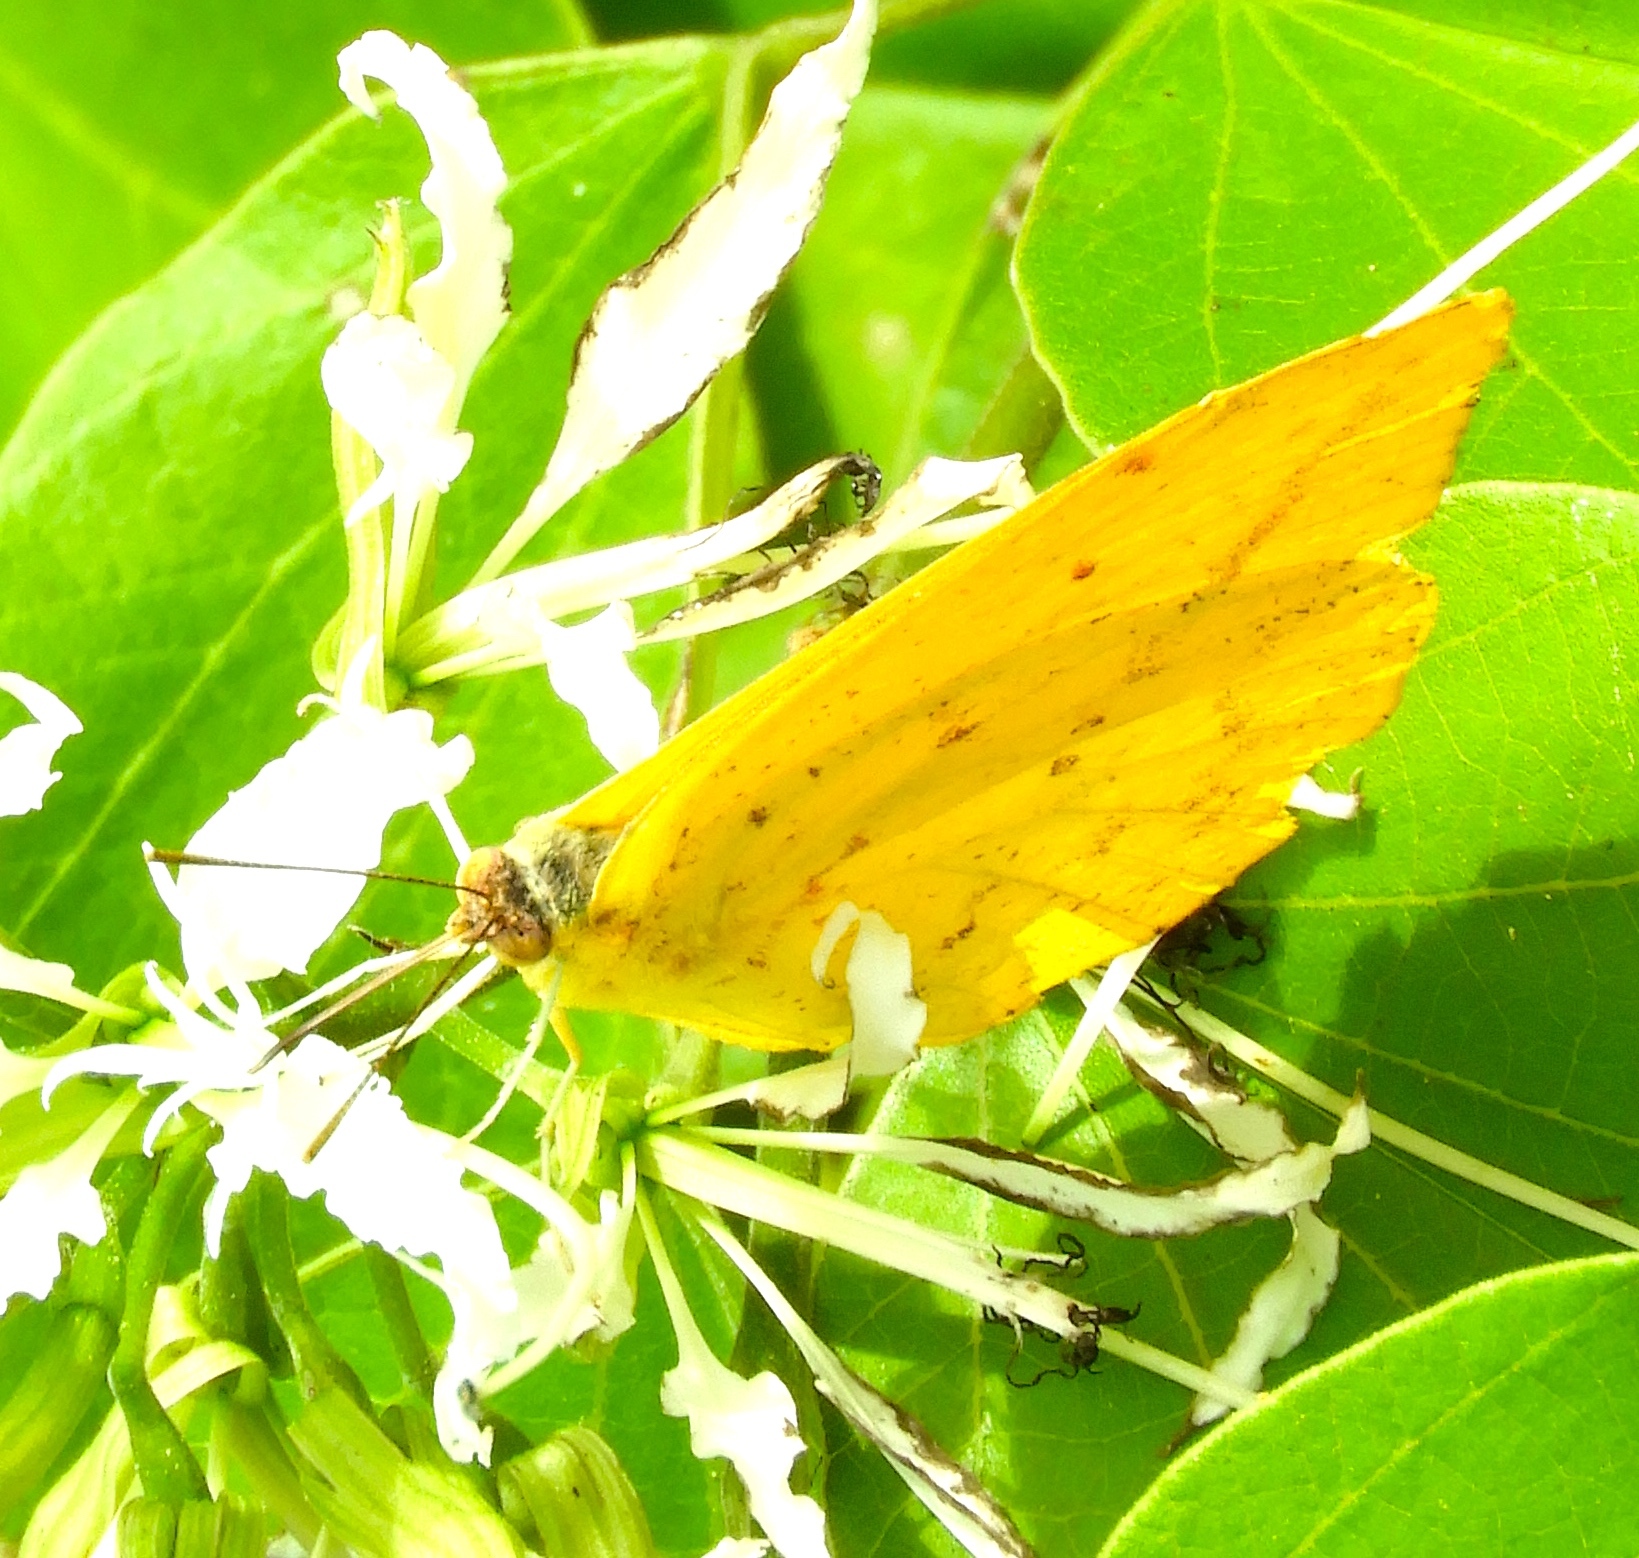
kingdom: Animalia
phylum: Arthropoda
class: Insecta
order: Lepidoptera
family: Pieridae
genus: Phoebis
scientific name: Phoebis agarithe
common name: Large orange sulphur
